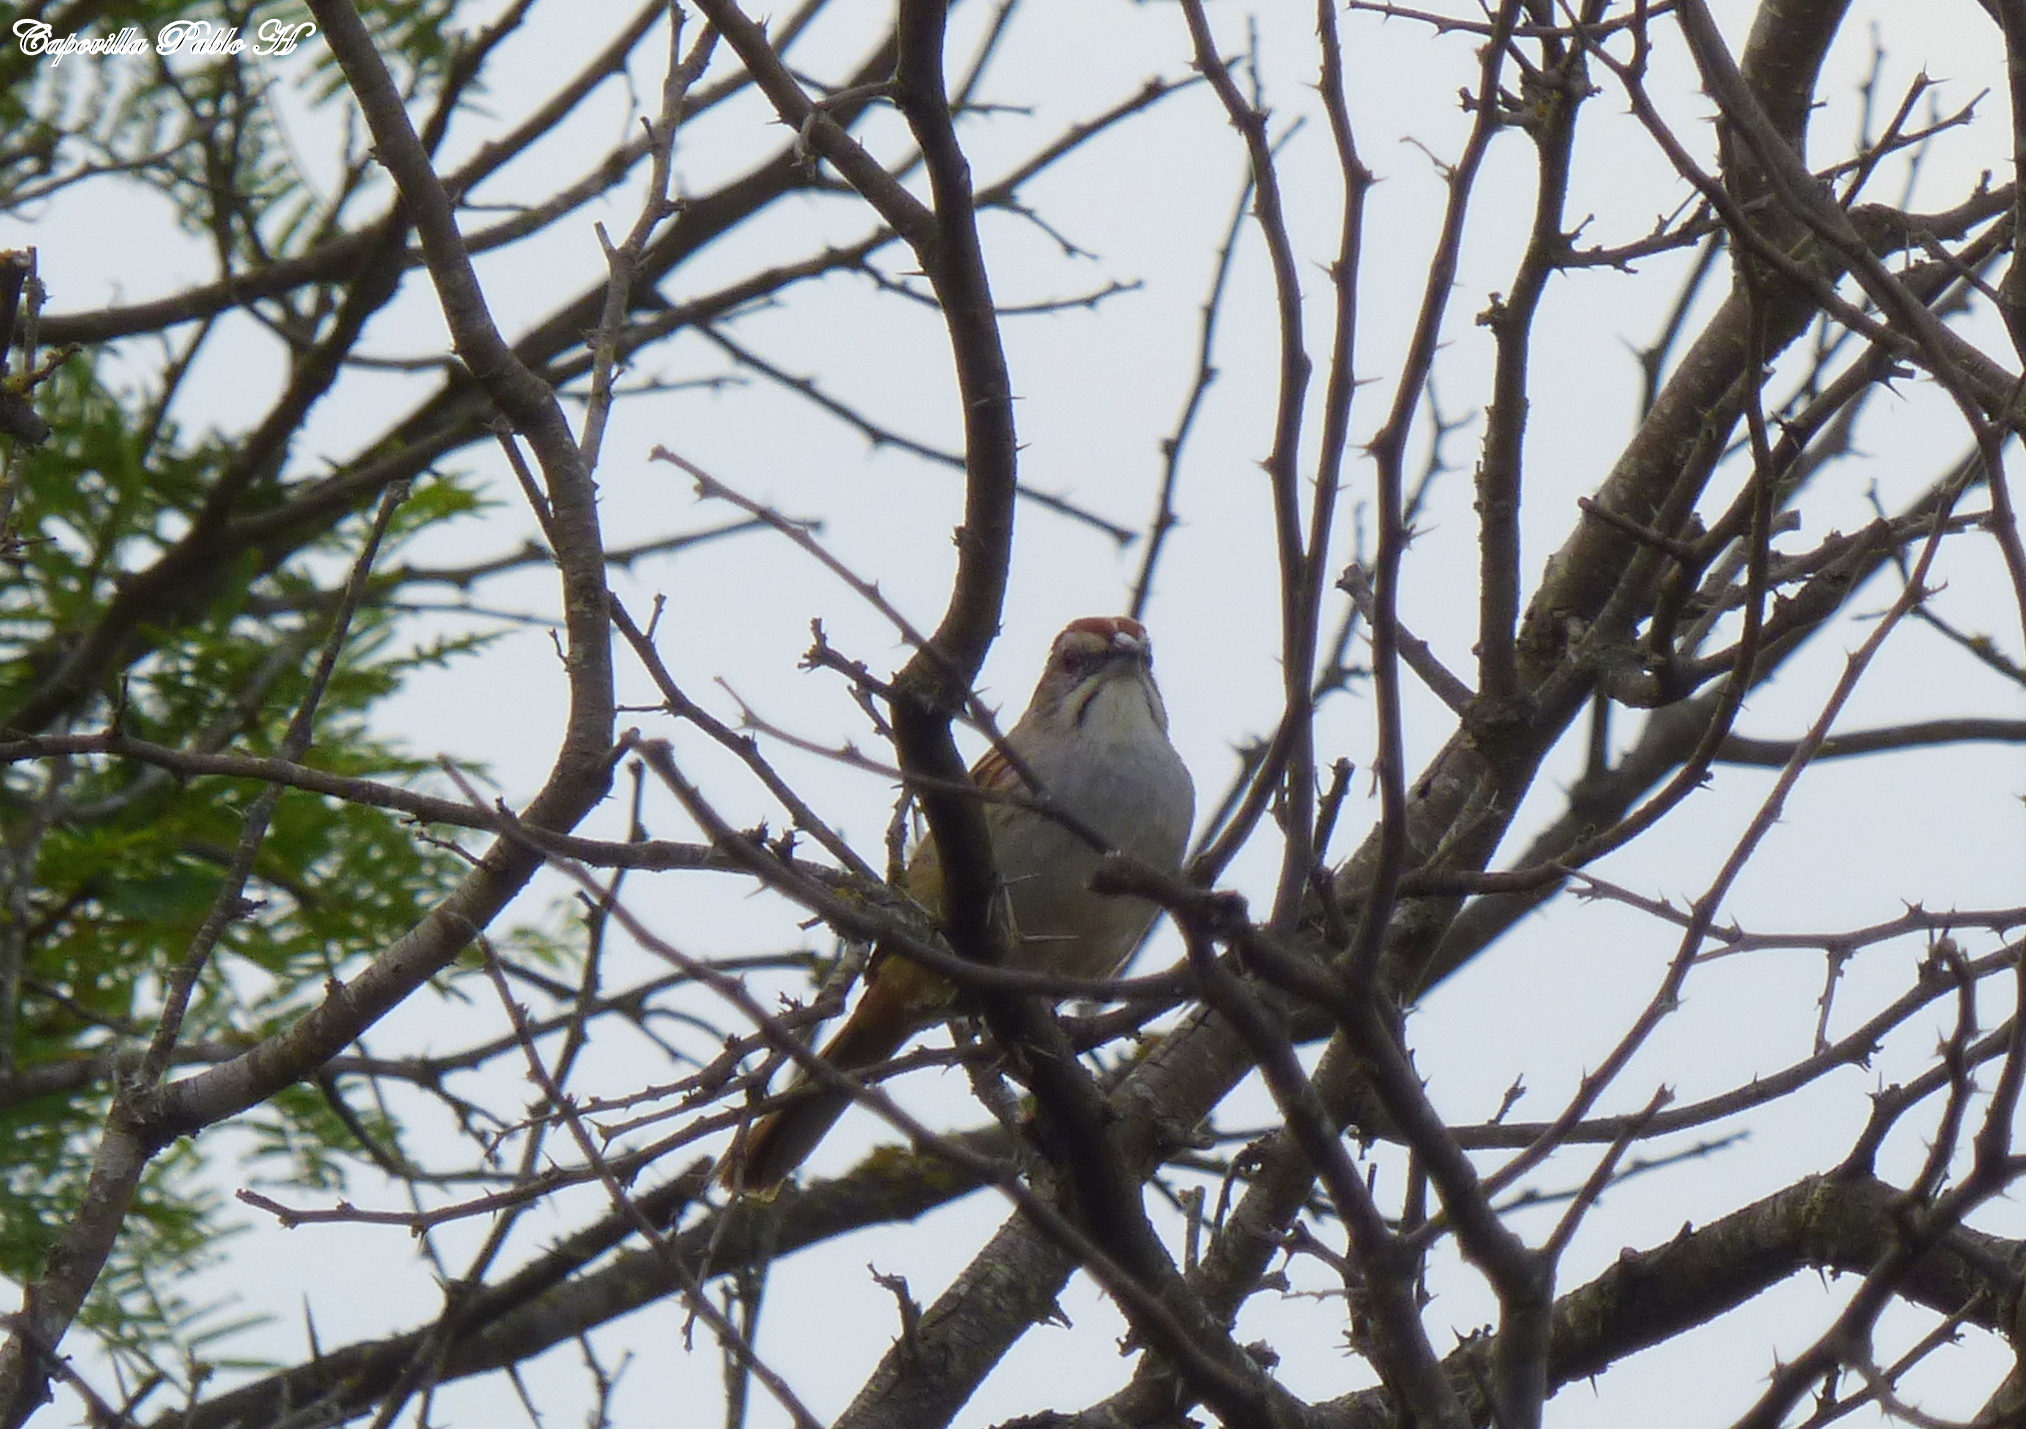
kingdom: Animalia
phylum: Chordata
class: Aves
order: Passeriformes
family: Passerellidae
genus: Rhynchospiza
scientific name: Rhynchospiza strigiceps
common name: Stripe-capped sparrow
